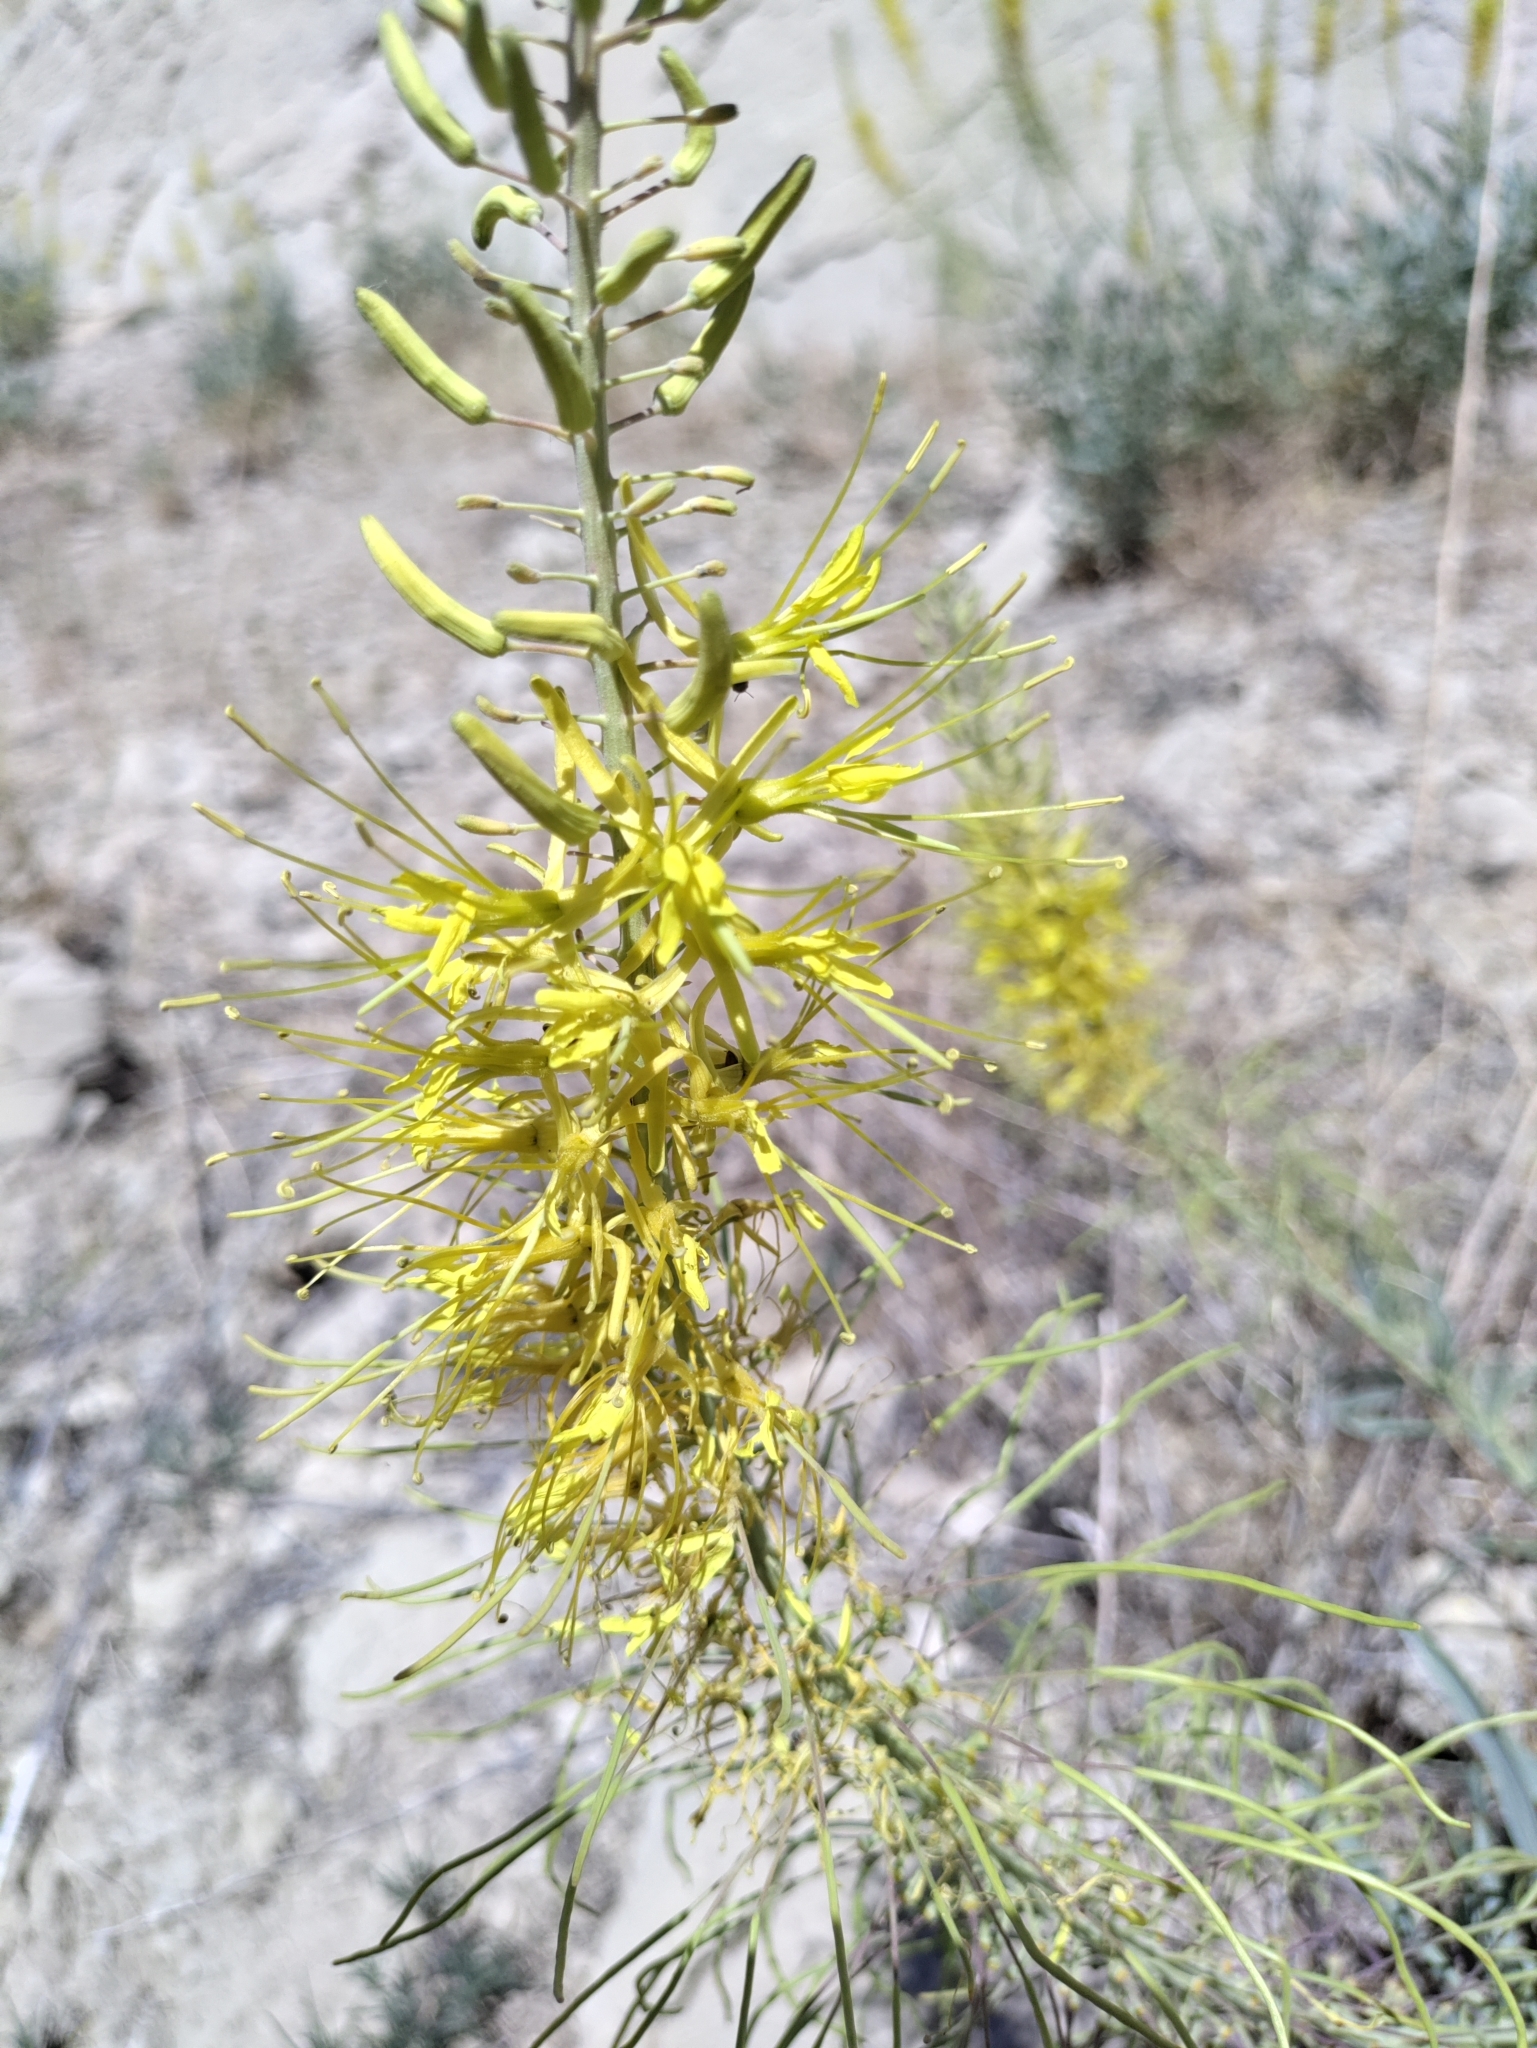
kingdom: Plantae
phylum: Tracheophyta
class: Magnoliopsida
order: Brassicales
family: Brassicaceae
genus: Stanleya
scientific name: Stanleya pinnata
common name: Prince's-plume
